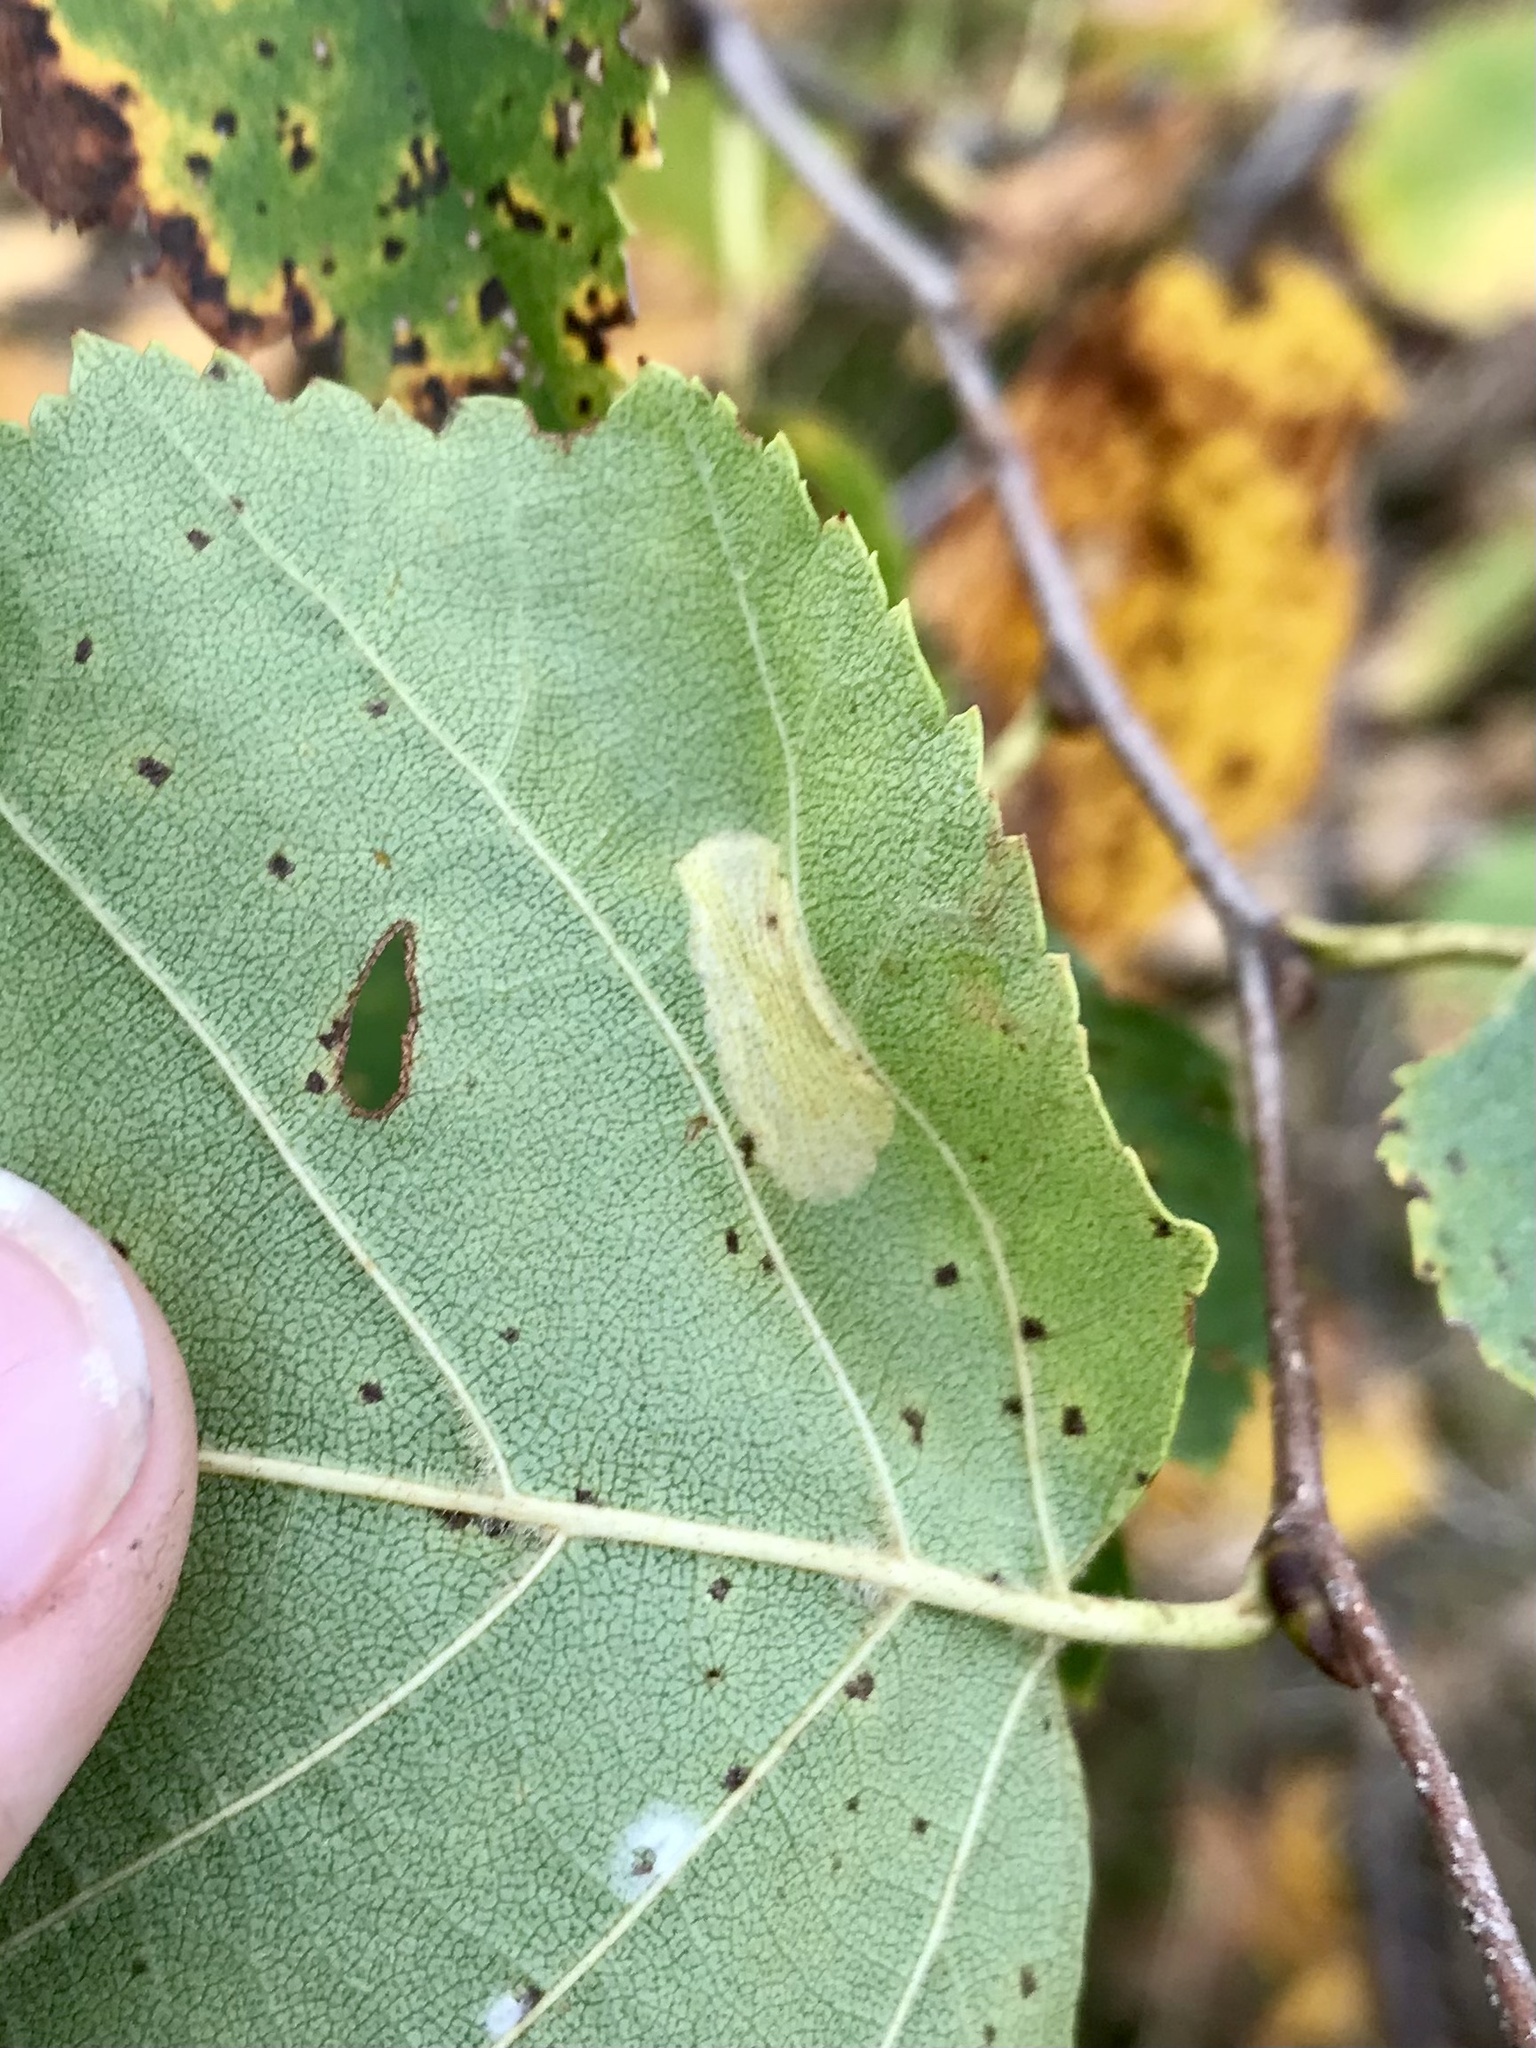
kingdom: Animalia
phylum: Arthropoda
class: Insecta
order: Lepidoptera
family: Gracillariidae
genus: Phyllonorycter
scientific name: Phyllonorycter martiella
